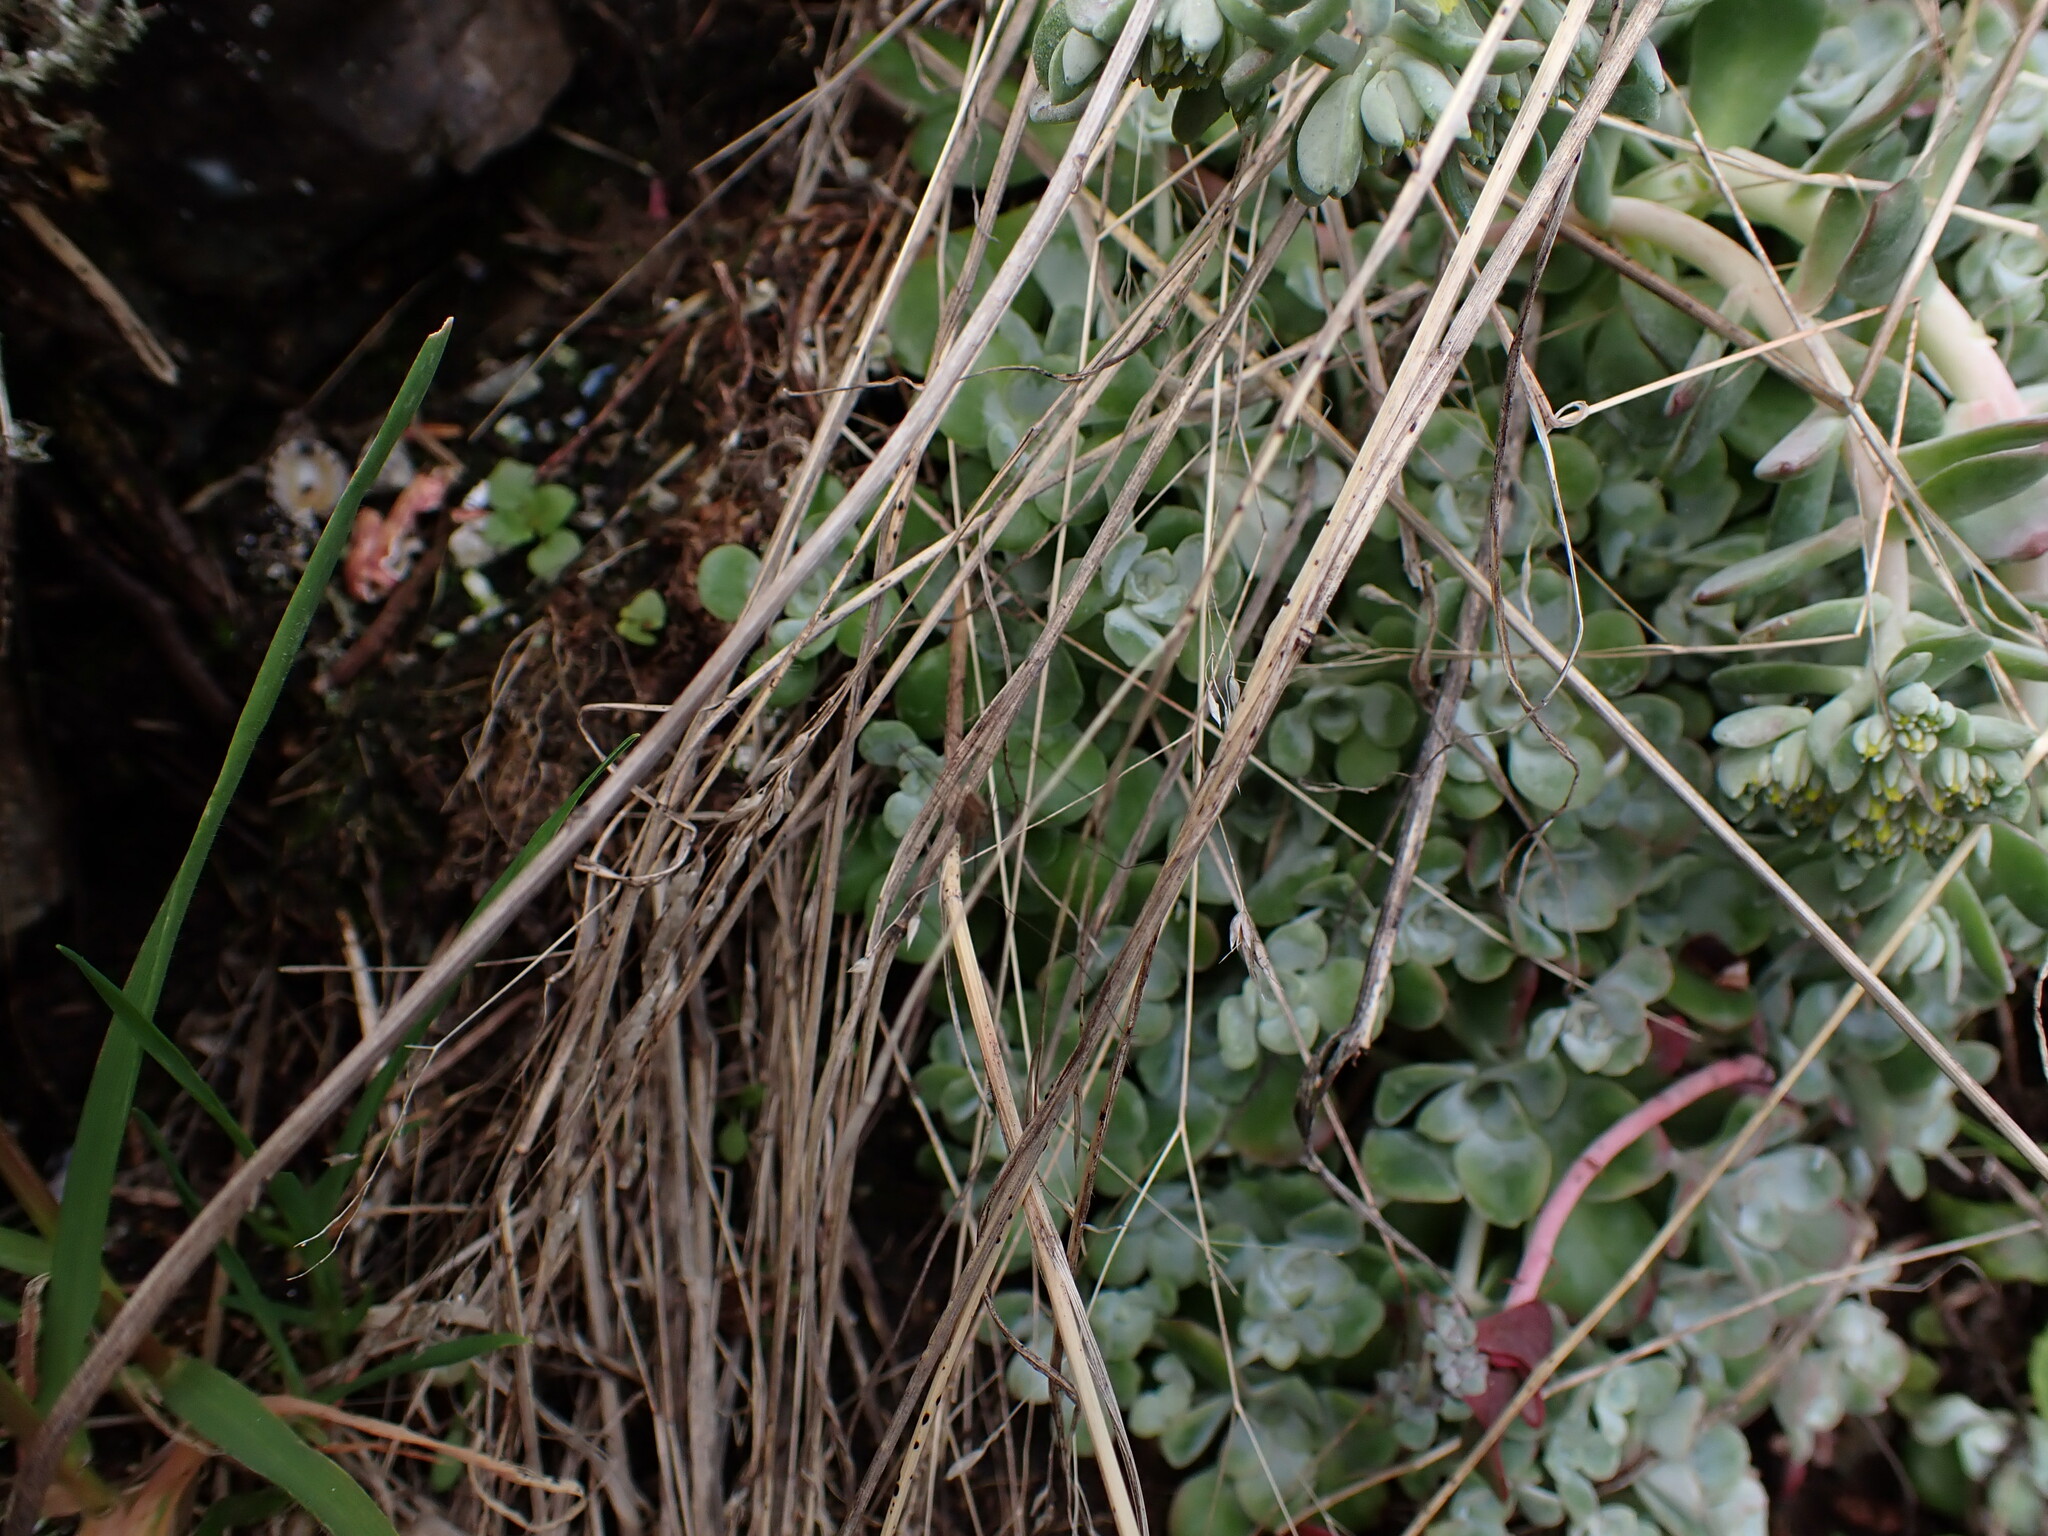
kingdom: Plantae
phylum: Tracheophyta
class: Magnoliopsida
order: Saxifragales
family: Crassulaceae
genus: Sedum
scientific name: Sedum spathulifolium
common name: Colorado stonecrop
